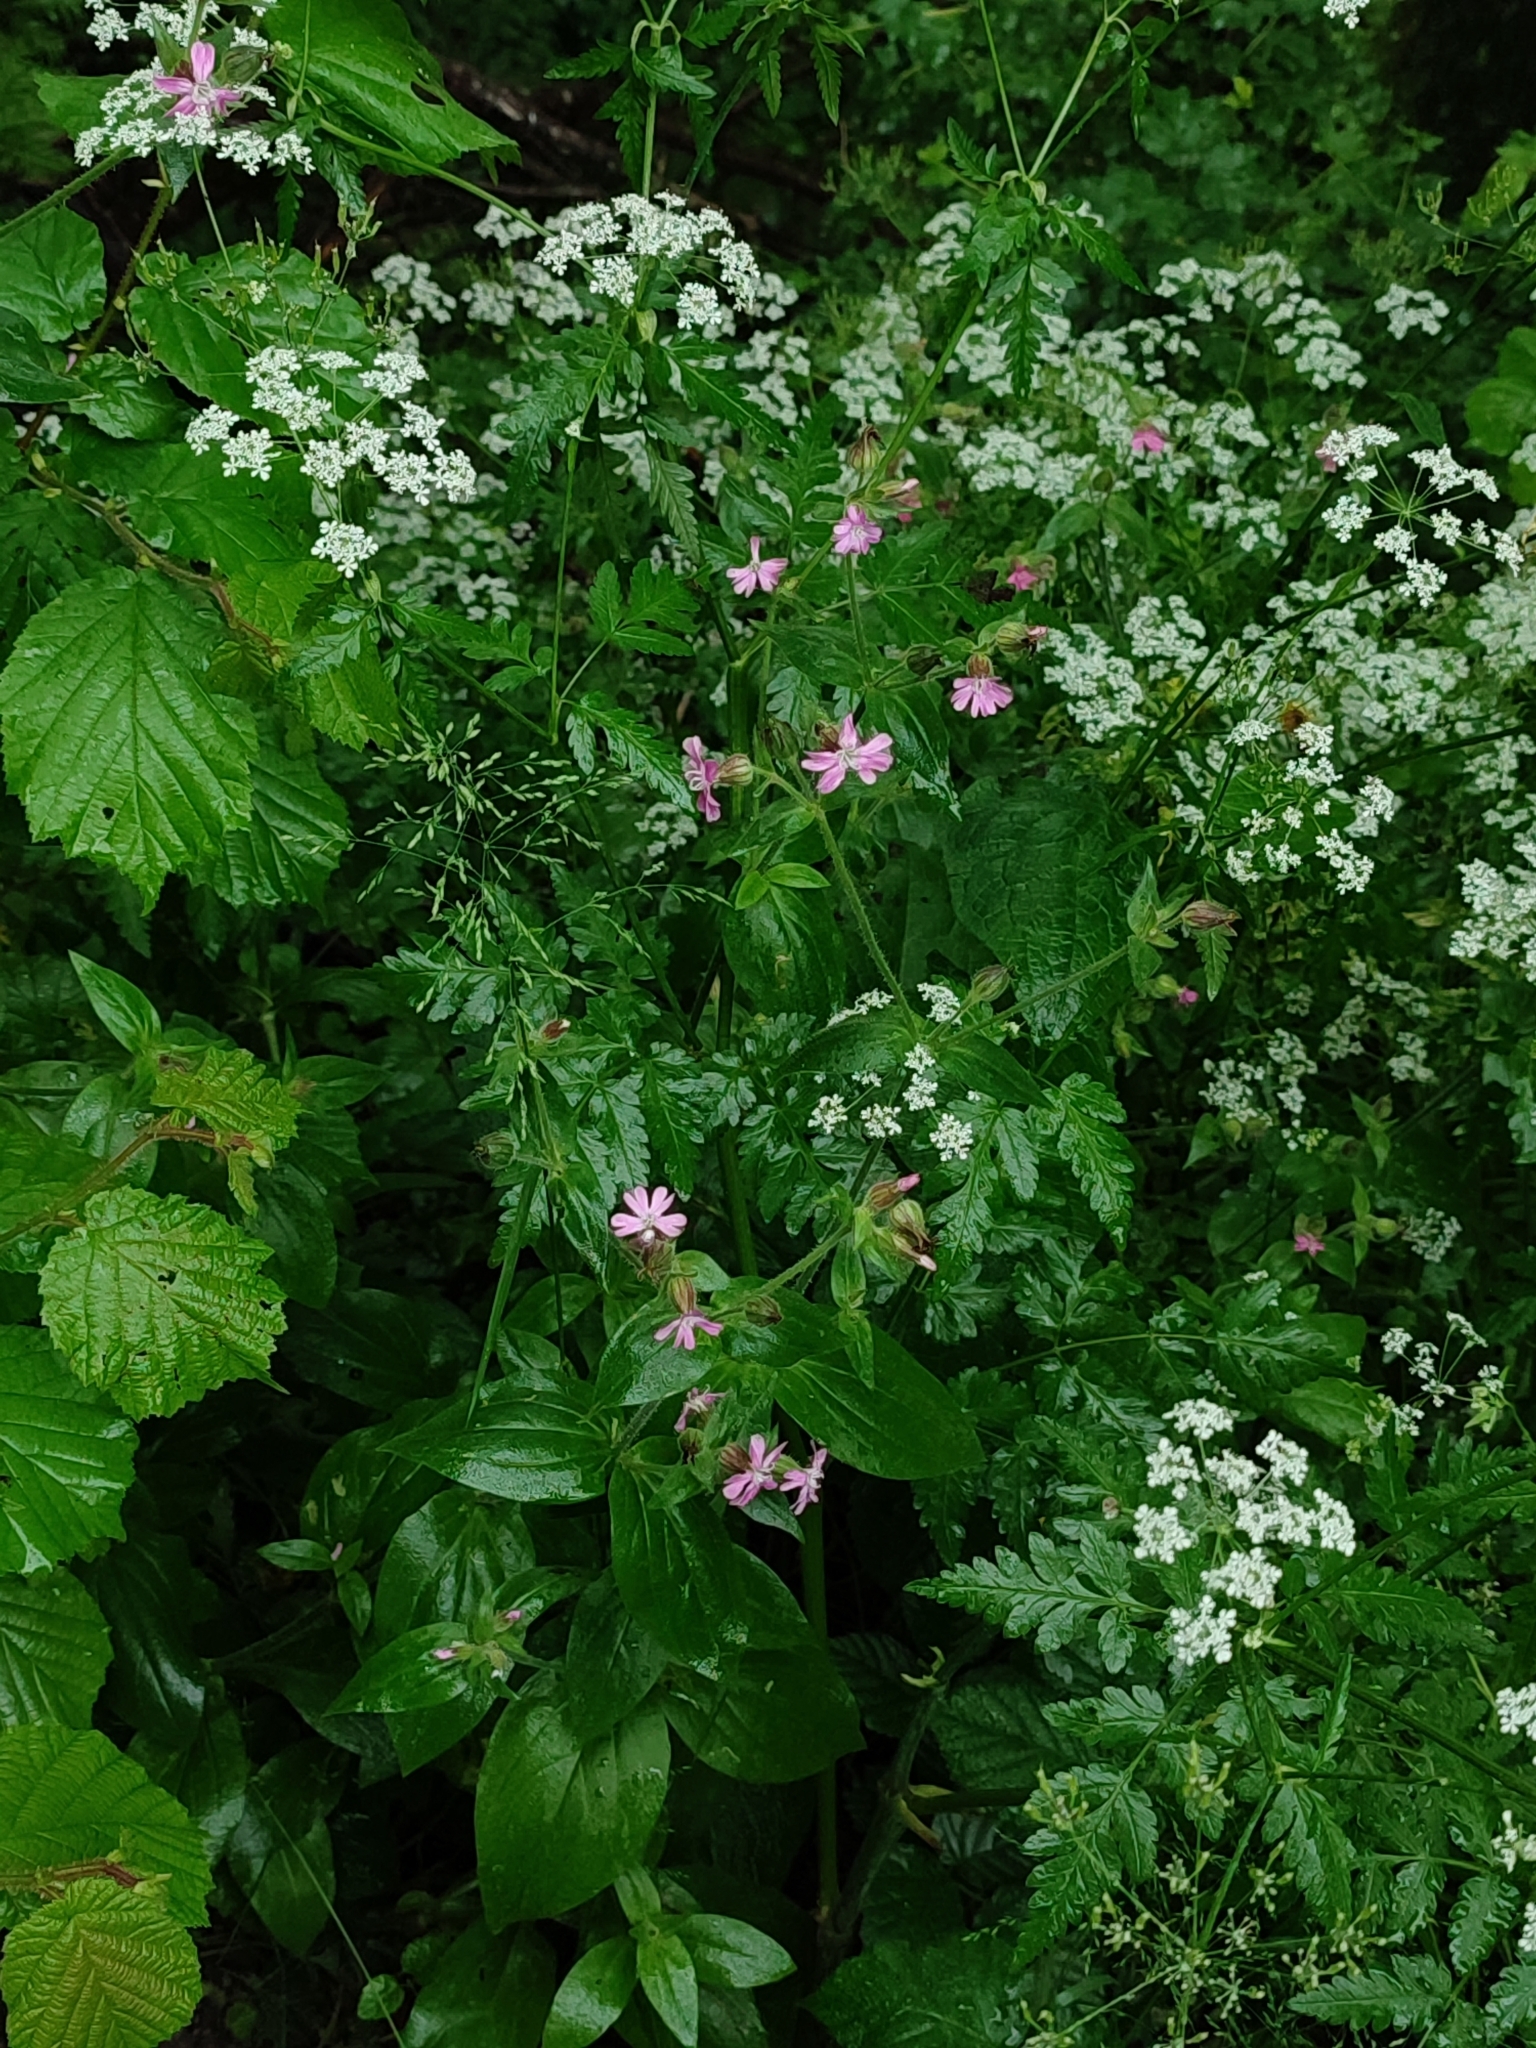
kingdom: Plantae
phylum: Tracheophyta
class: Magnoliopsida
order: Caryophyllales
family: Caryophyllaceae
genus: Silene
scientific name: Silene dioica
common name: Red campion
